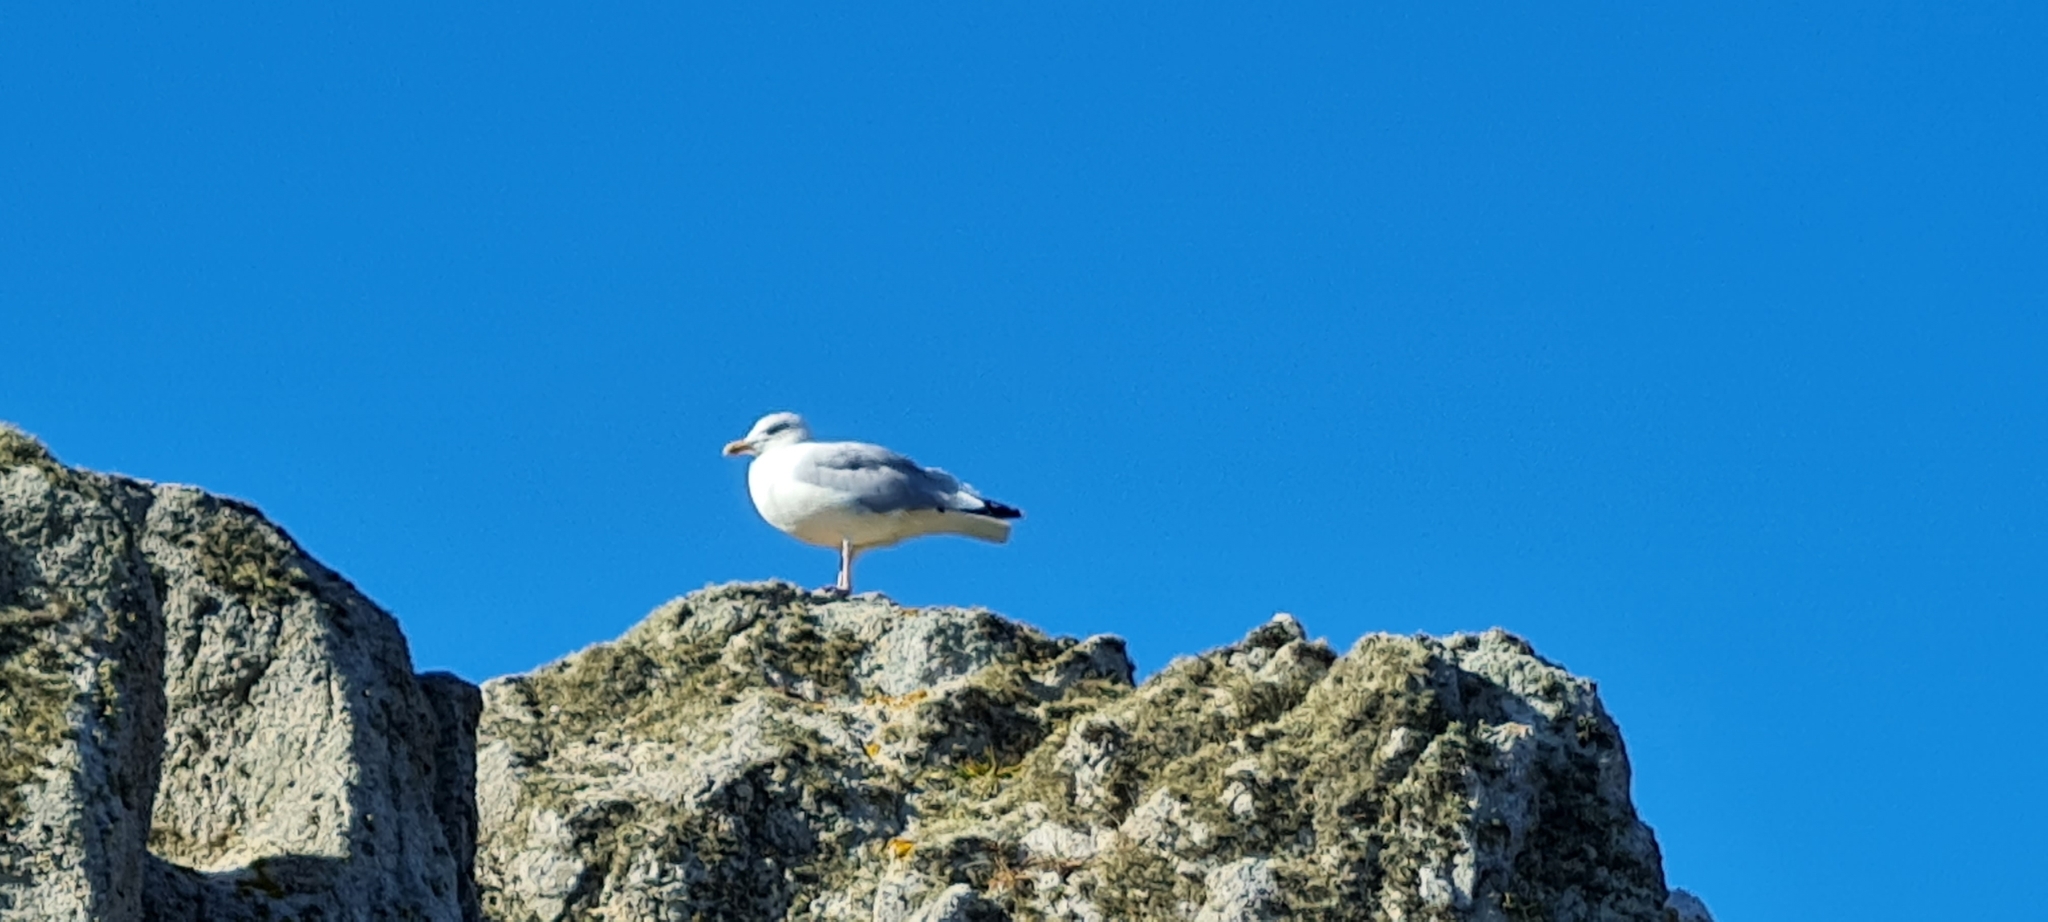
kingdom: Animalia
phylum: Chordata
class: Aves
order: Charadriiformes
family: Laridae
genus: Larus
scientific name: Larus argentatus
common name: Herring gull
